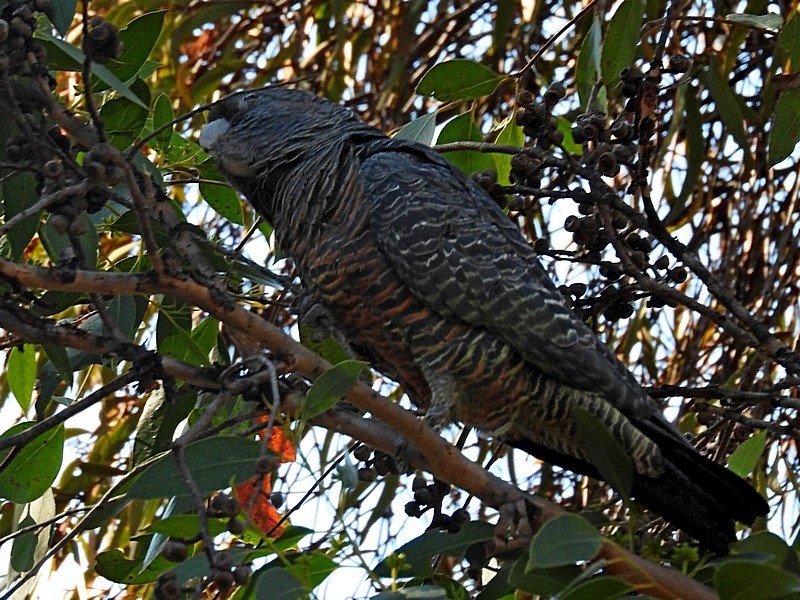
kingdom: Animalia
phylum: Chordata
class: Aves
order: Psittaciformes
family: Psittacidae
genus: Callocephalon
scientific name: Callocephalon fimbriatum
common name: Gang-gang cockatoo
